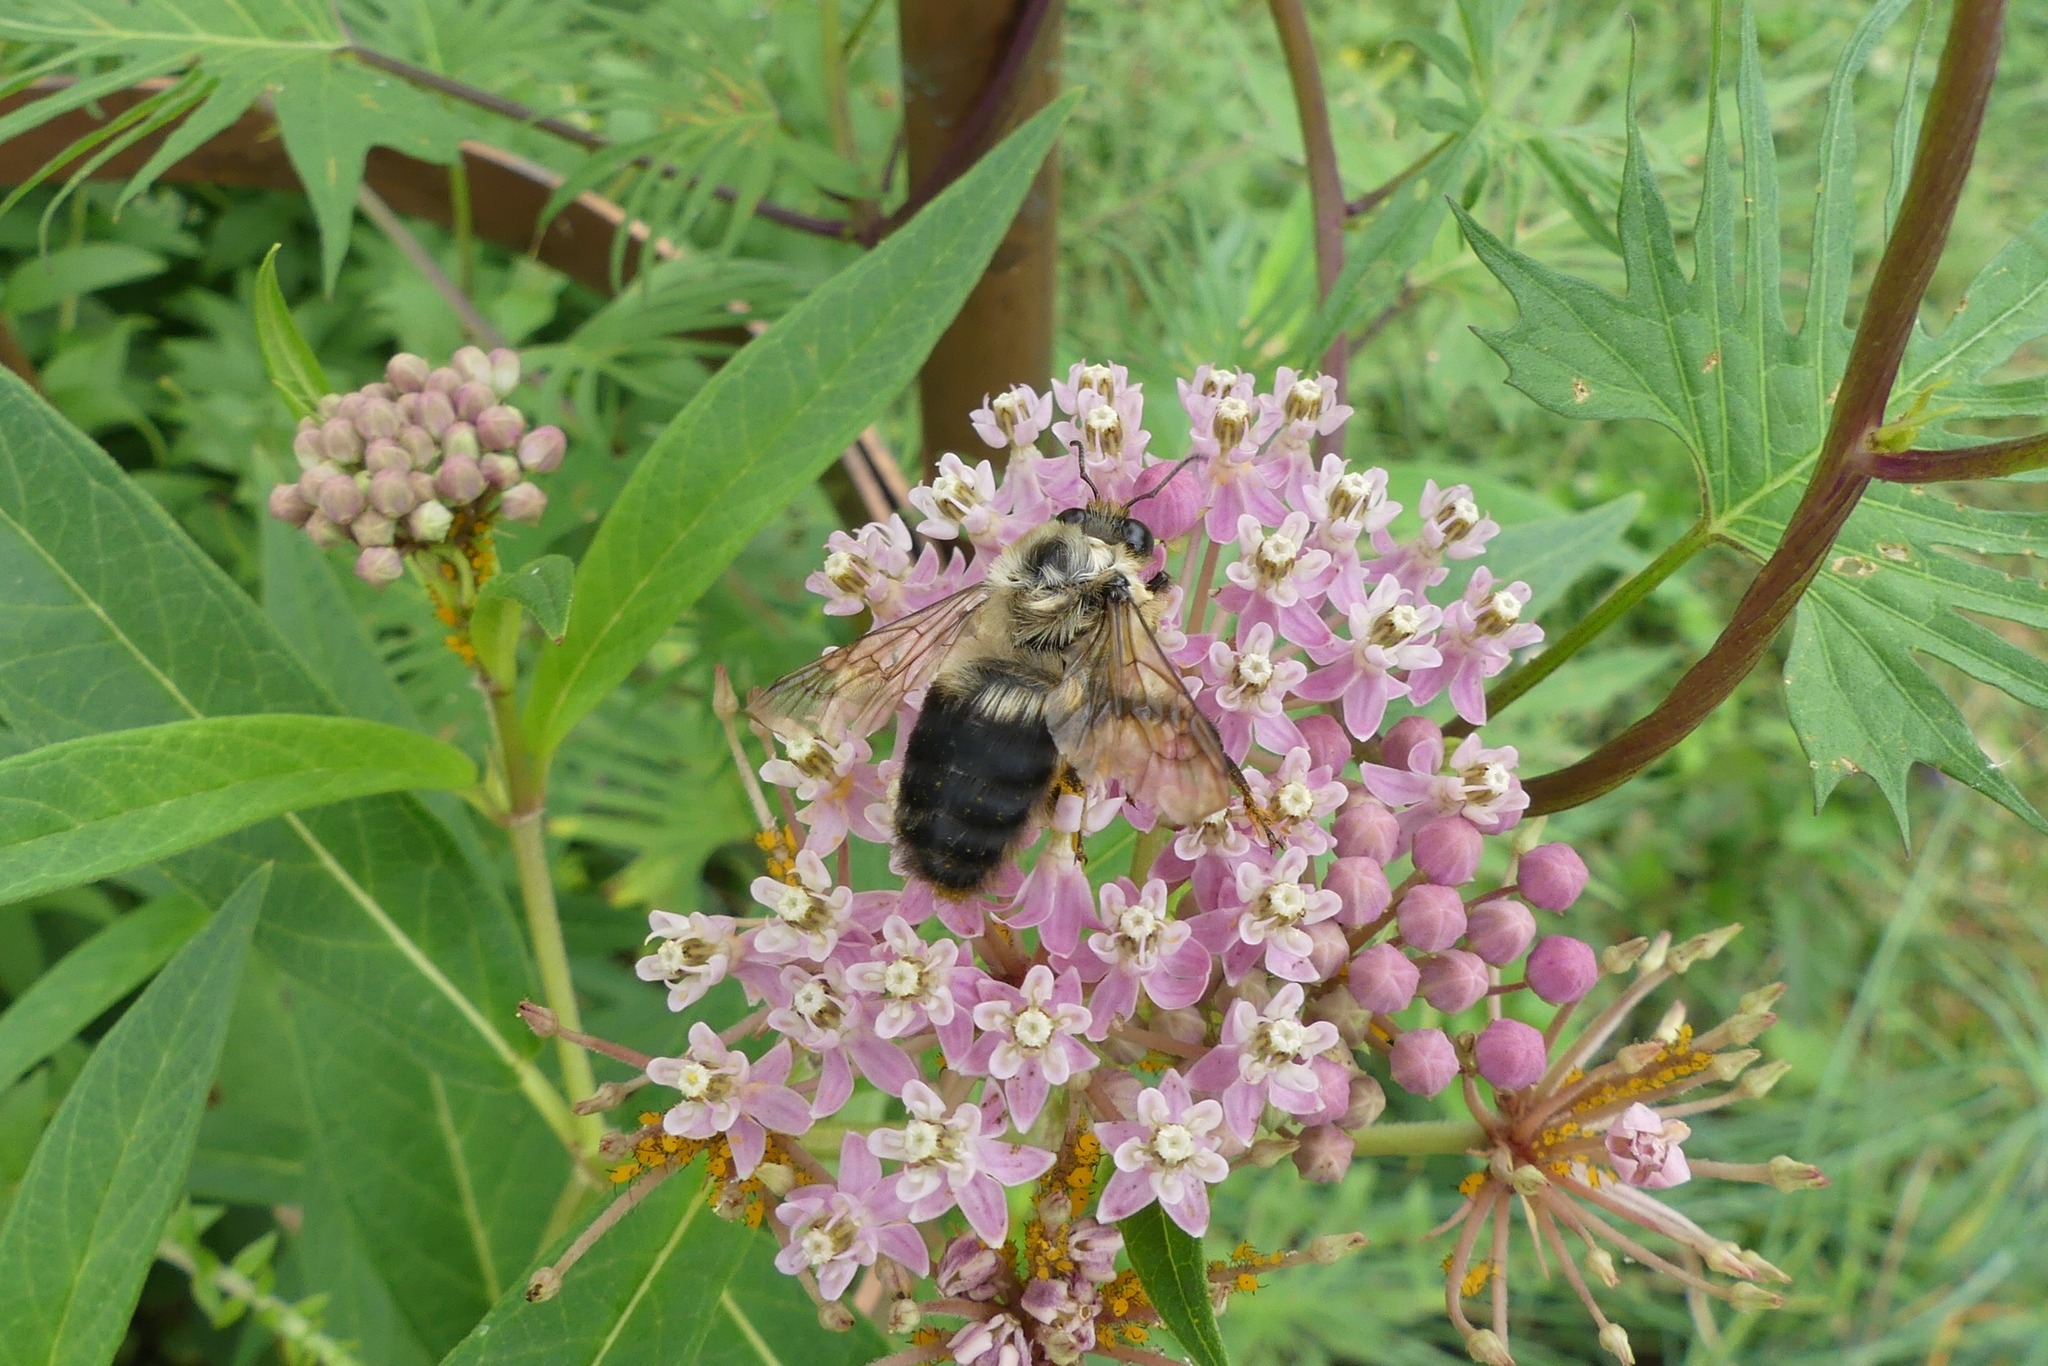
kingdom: Animalia
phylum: Arthropoda
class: Insecta
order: Hymenoptera
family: Apidae
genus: Bombus
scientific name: Bombus griseocollis
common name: Brown-belted bumble bee
